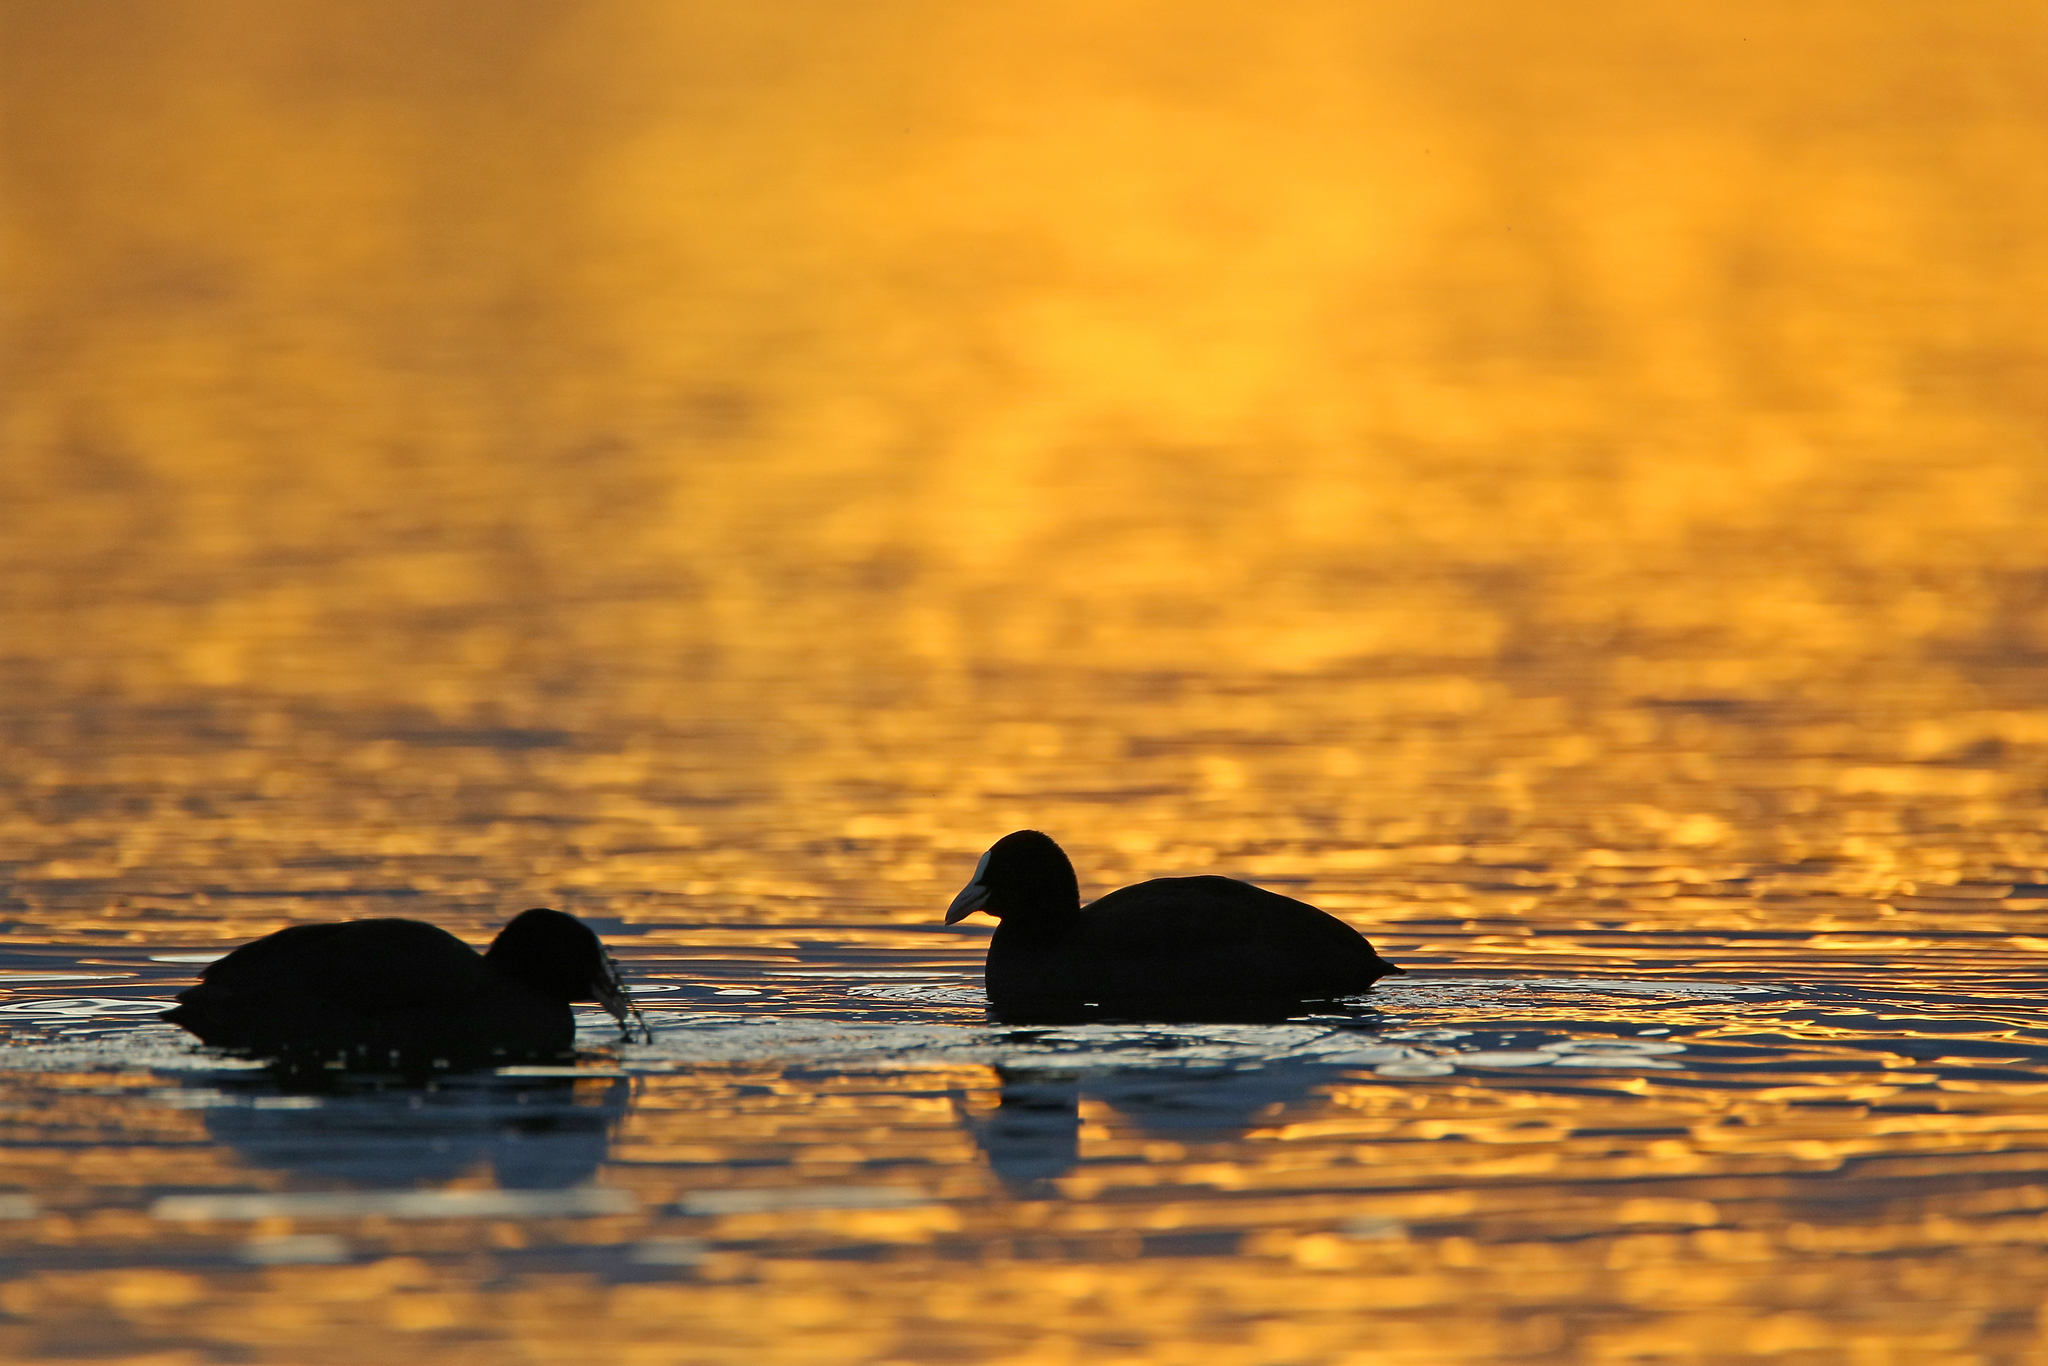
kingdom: Animalia
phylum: Chordata
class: Aves
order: Gruiformes
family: Rallidae
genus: Fulica
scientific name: Fulica atra
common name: Eurasian coot
